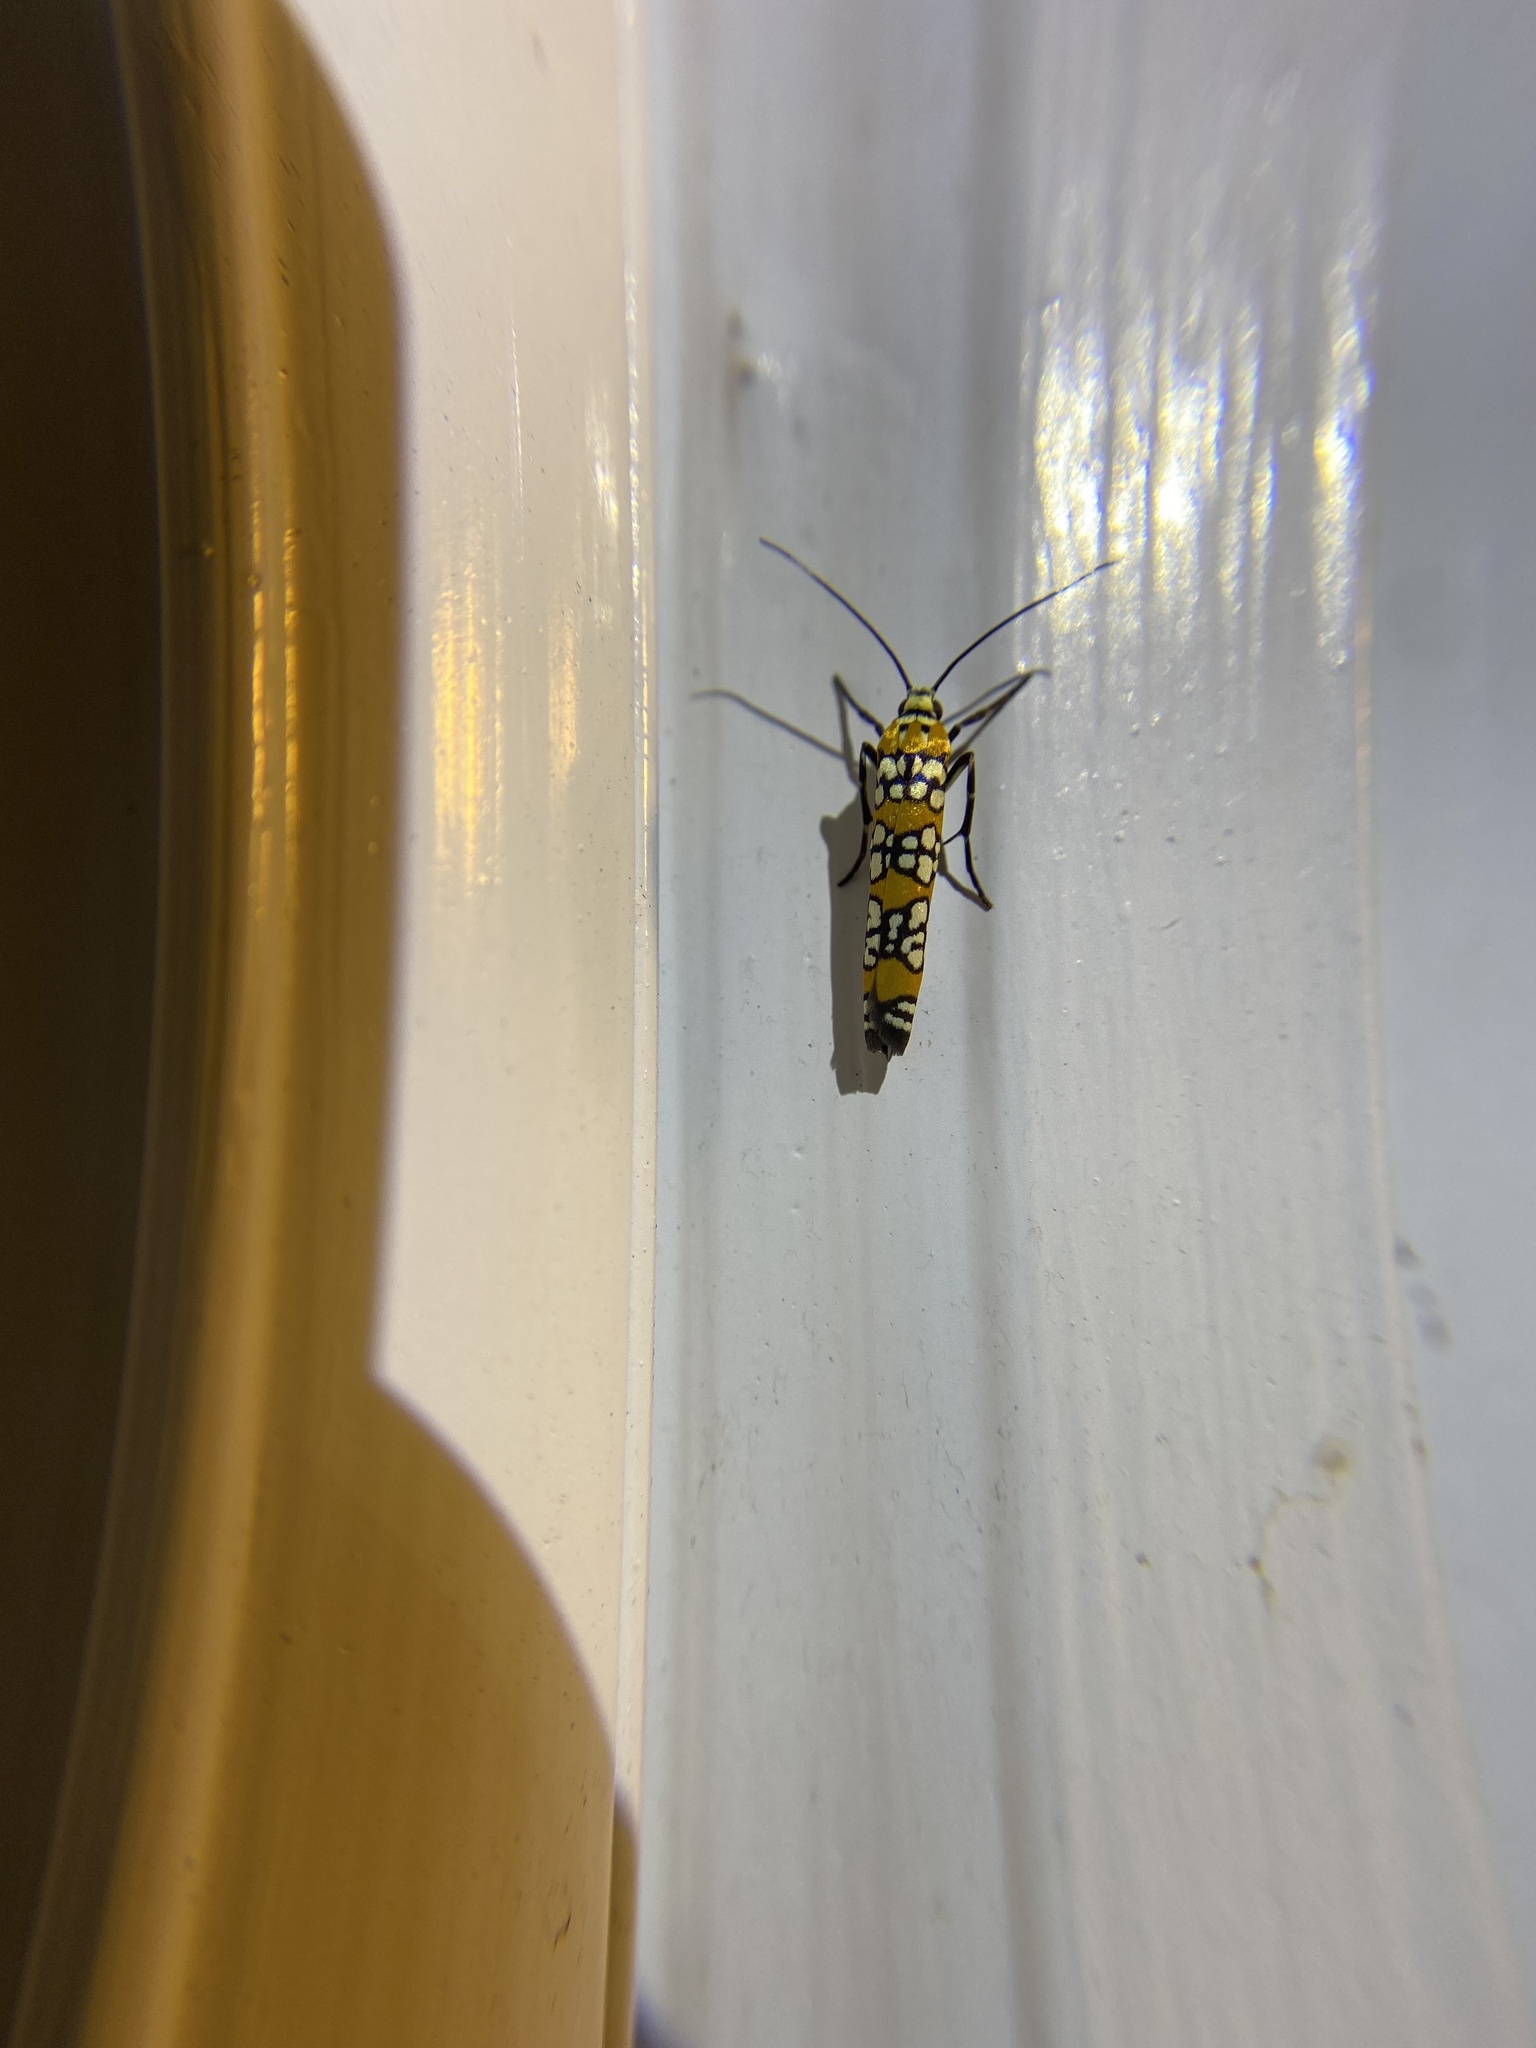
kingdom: Animalia
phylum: Arthropoda
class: Insecta
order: Lepidoptera
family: Attevidae
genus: Atteva
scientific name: Atteva punctella
